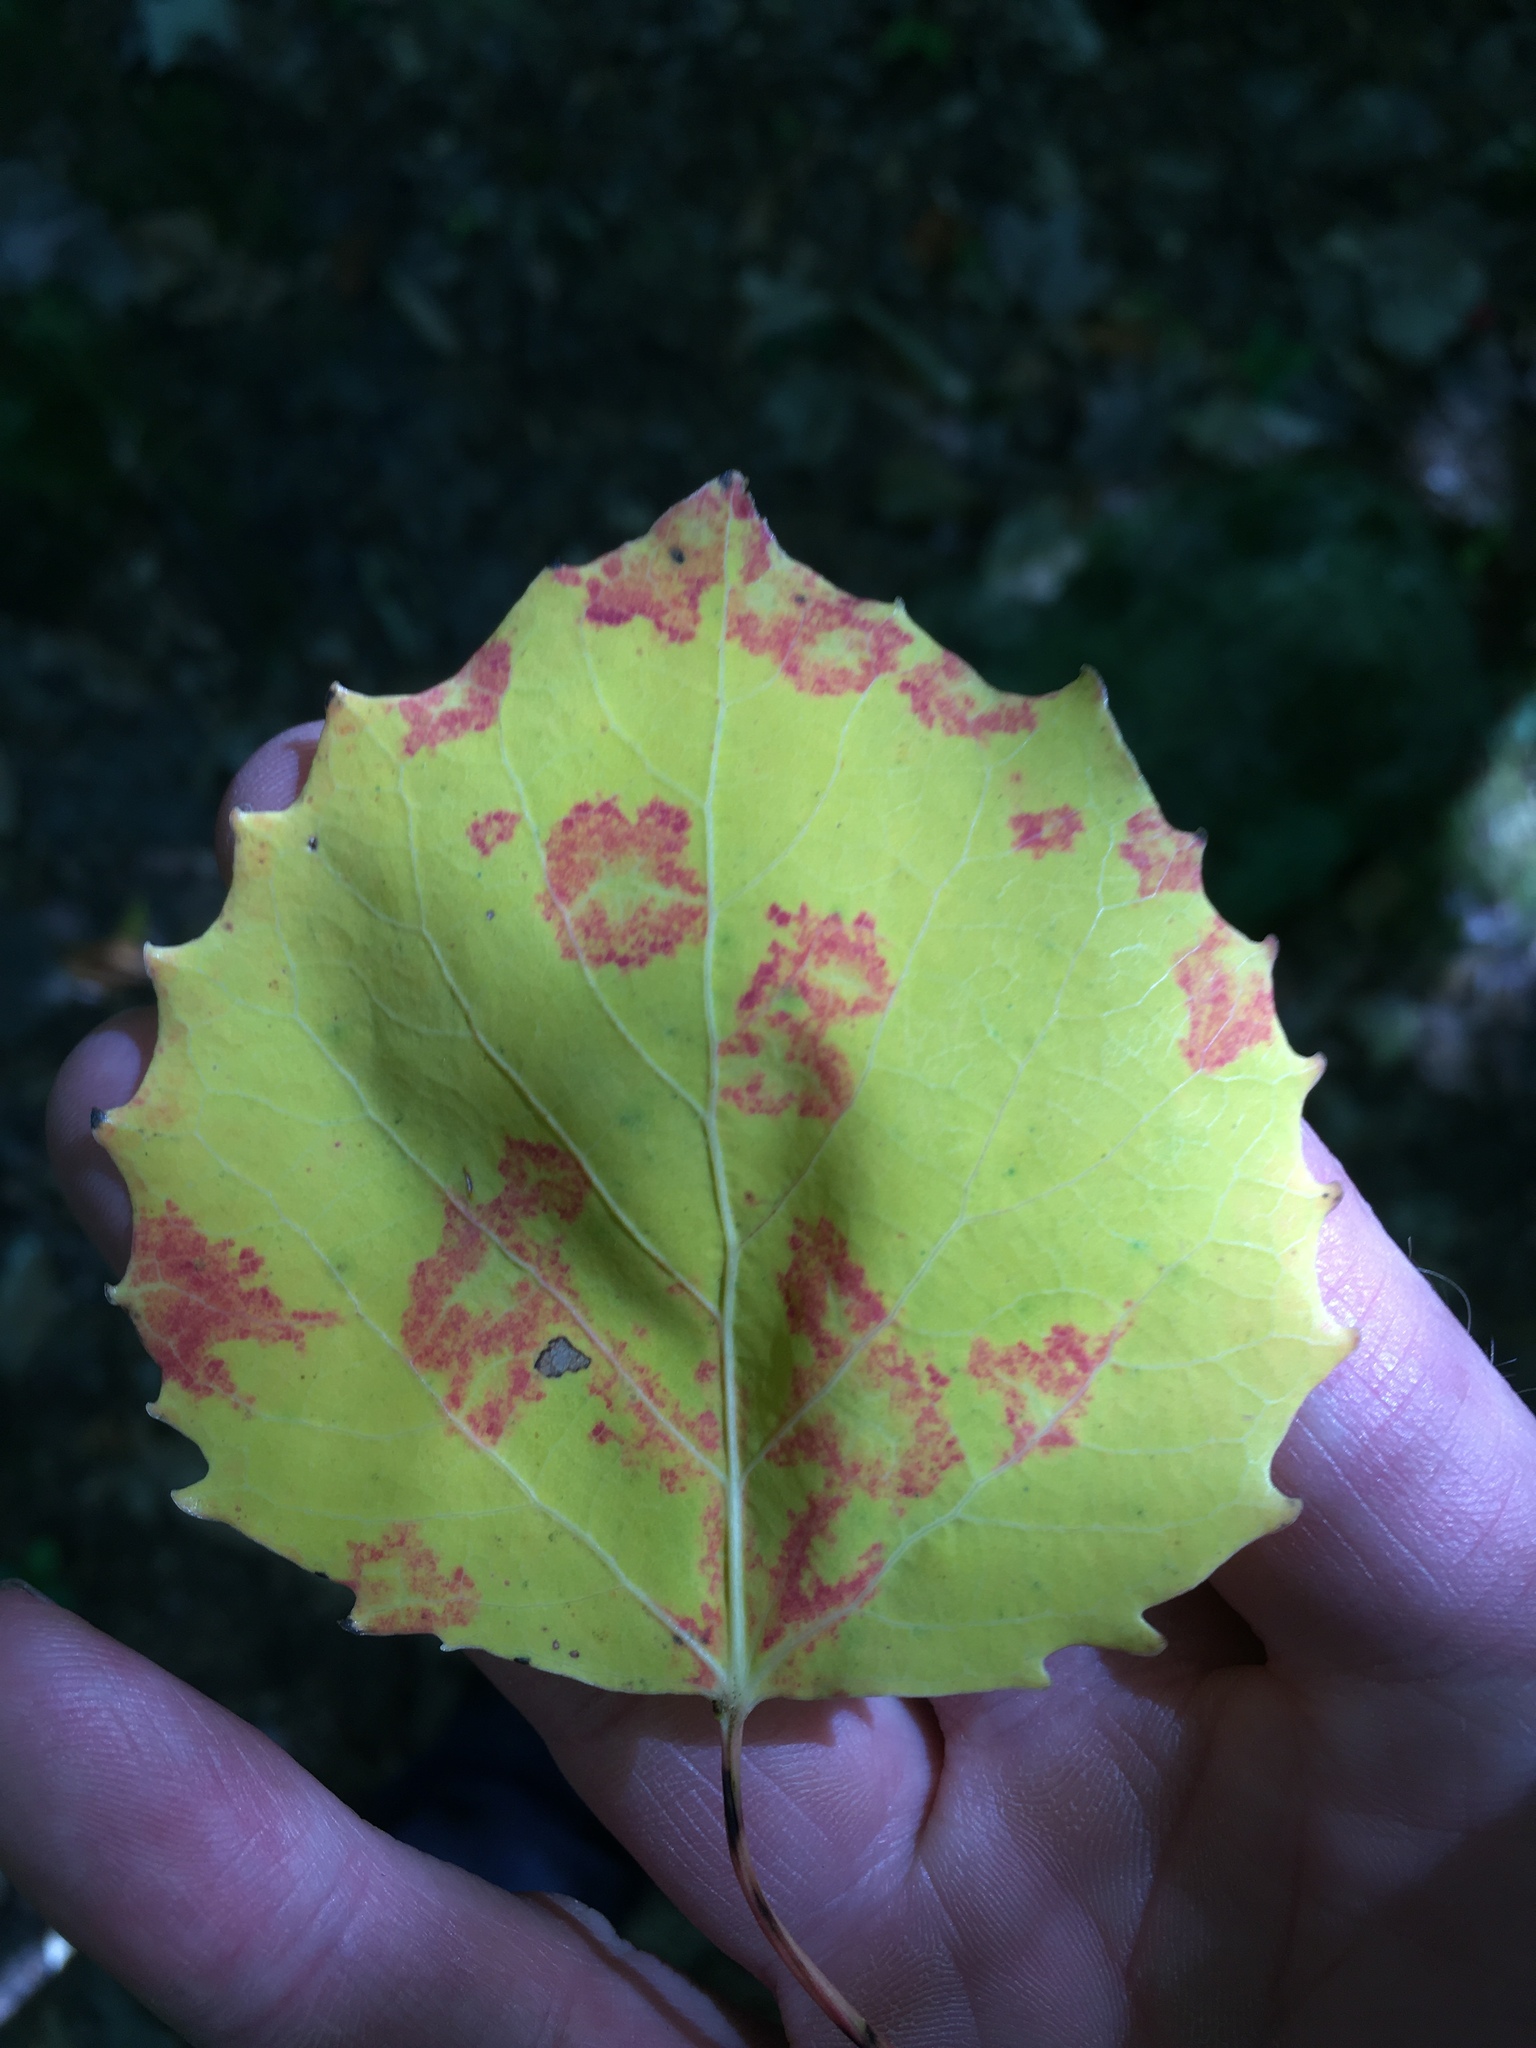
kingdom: Plantae
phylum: Tracheophyta
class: Magnoliopsida
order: Malpighiales
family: Salicaceae
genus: Populus
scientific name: Populus grandidentata
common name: Bigtooth aspen
